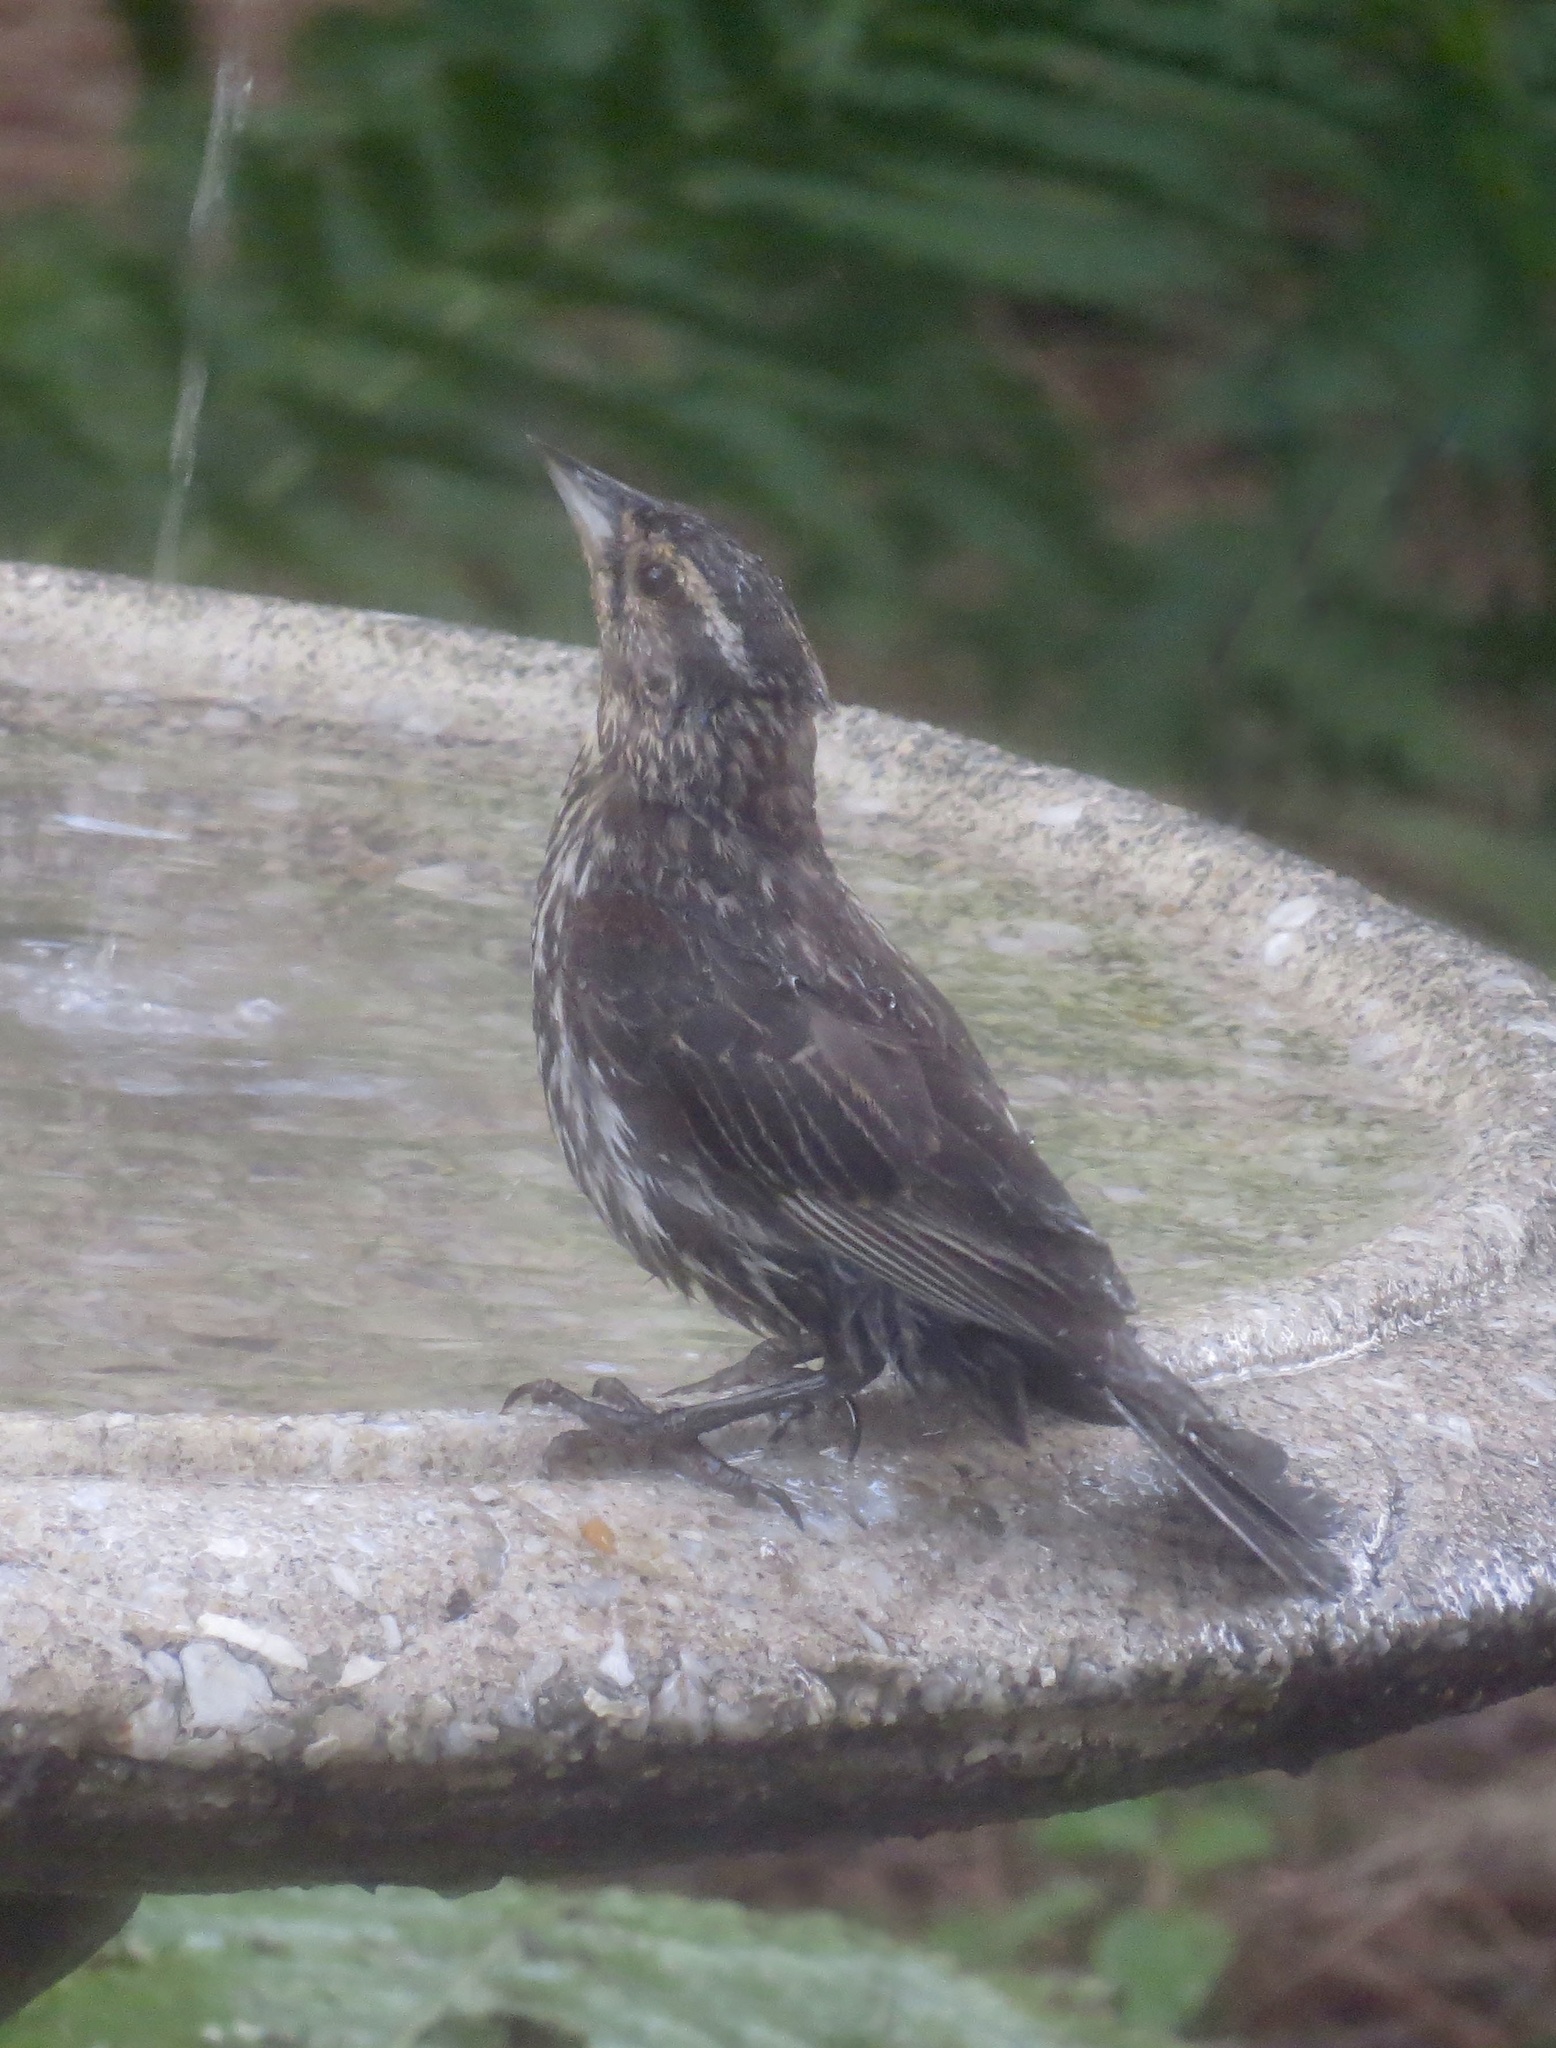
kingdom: Animalia
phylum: Chordata
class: Aves
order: Passeriformes
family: Icteridae
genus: Agelaius
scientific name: Agelaius phoeniceus
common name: Red-winged blackbird
